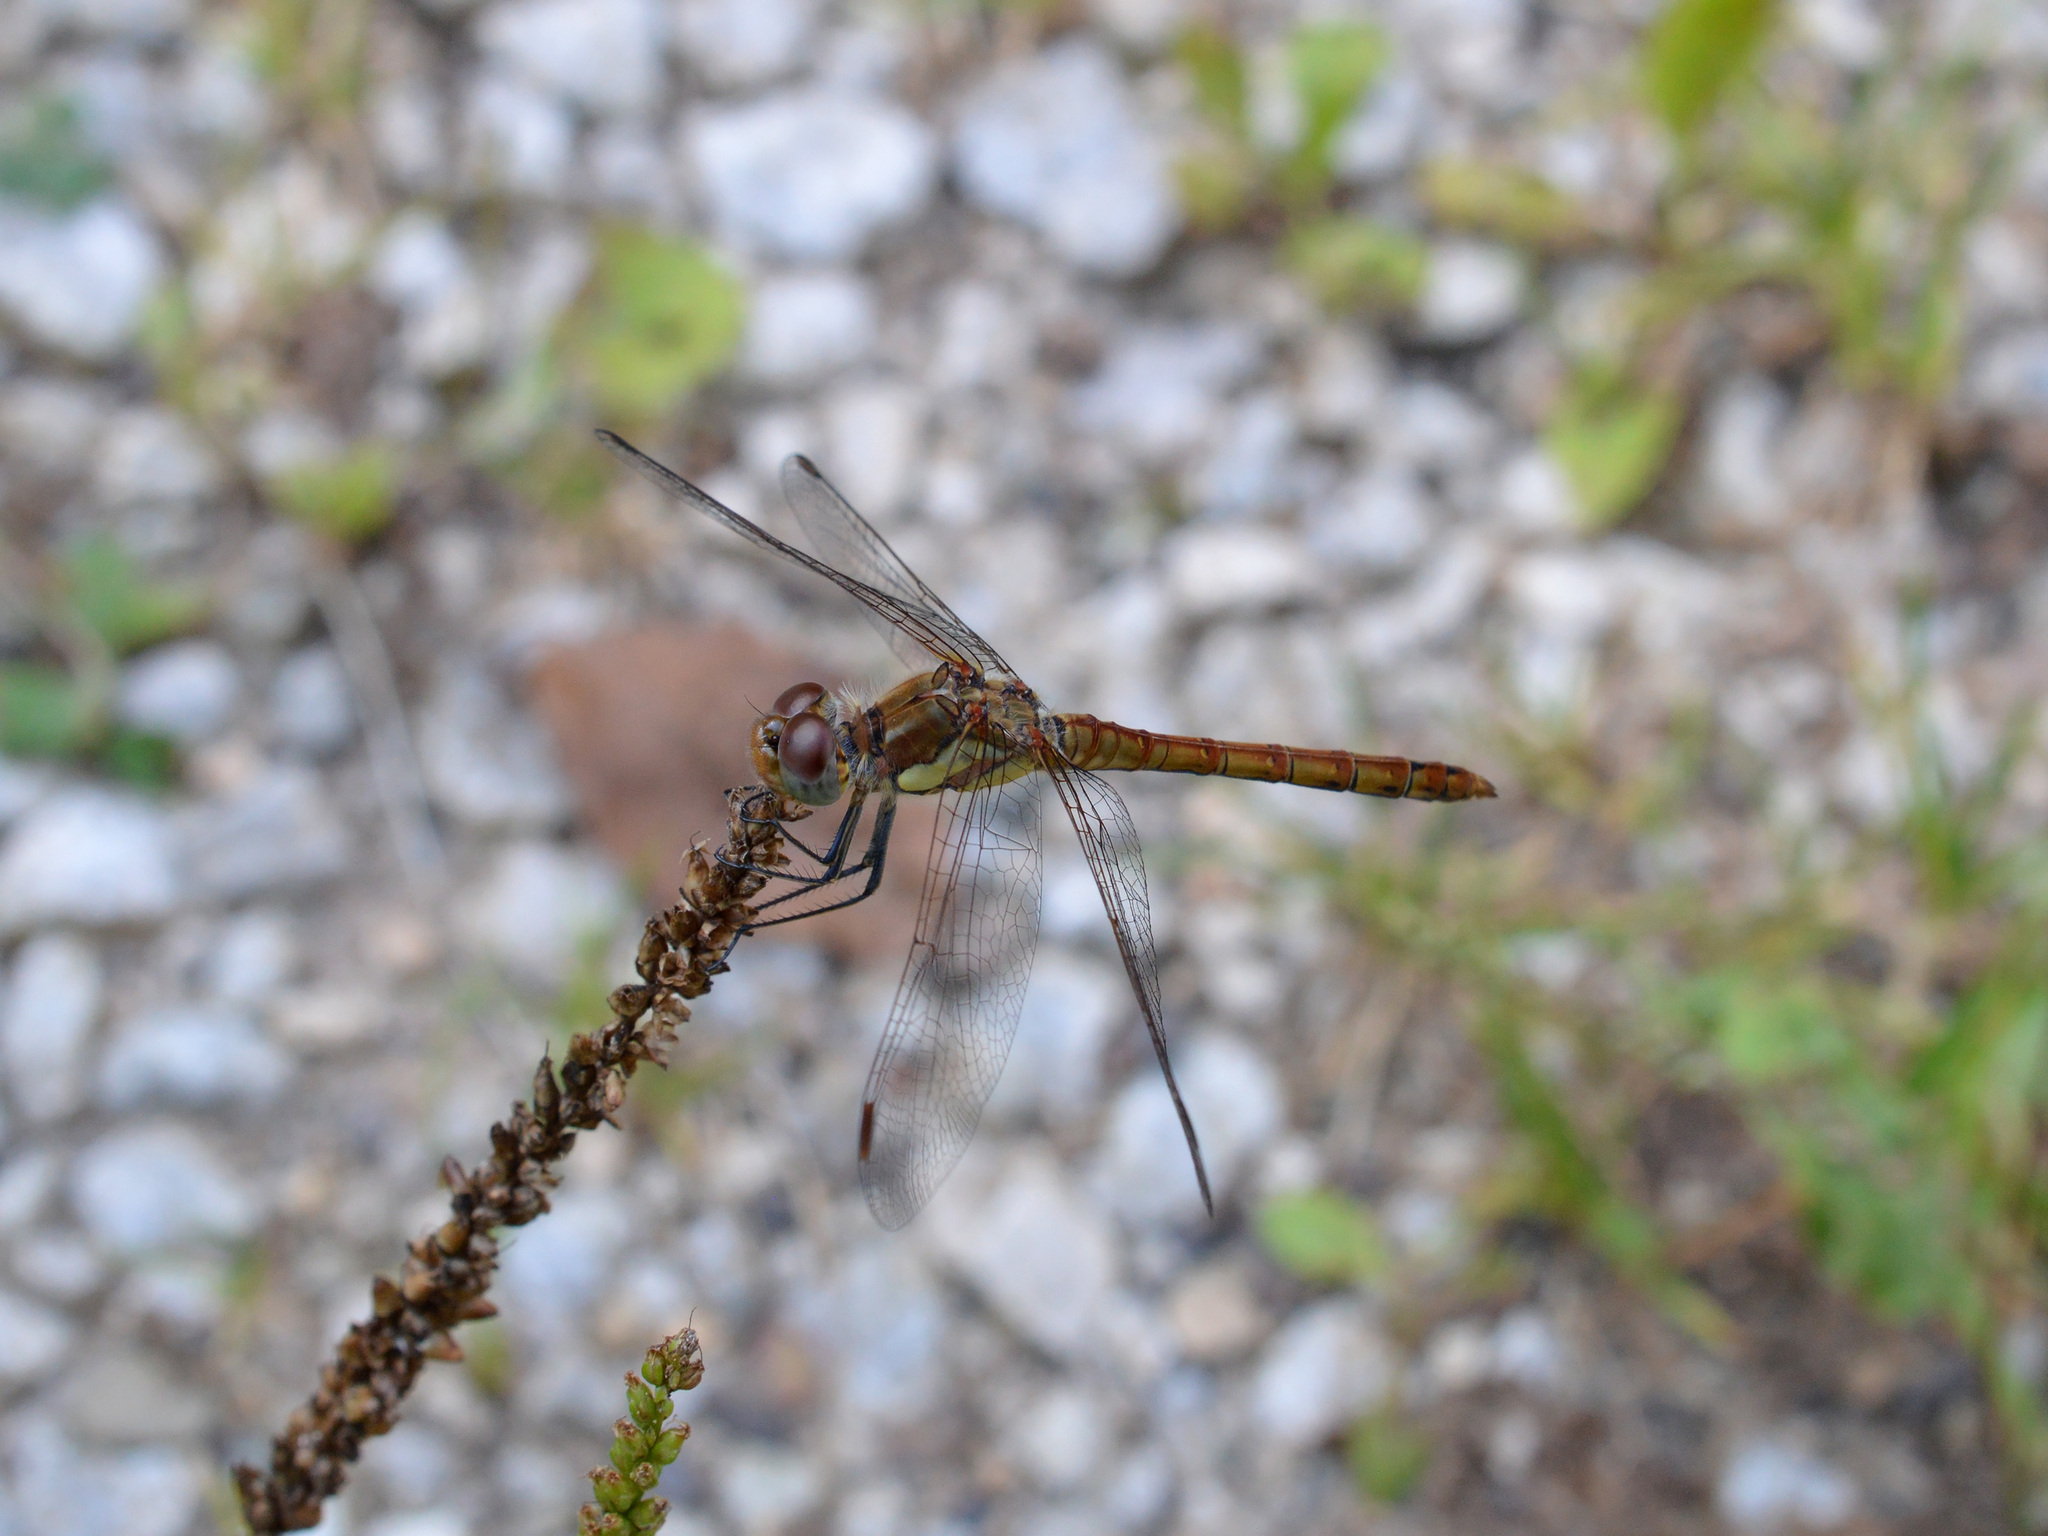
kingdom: Animalia
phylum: Arthropoda
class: Insecta
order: Odonata
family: Libellulidae
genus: Sympetrum
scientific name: Sympetrum striolatum
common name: Common darter
